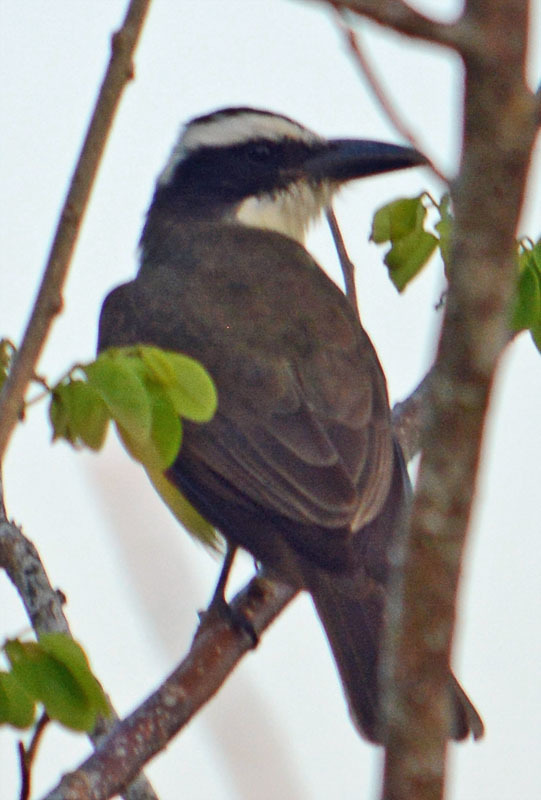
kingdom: Animalia
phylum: Chordata
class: Aves
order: Passeriformes
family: Tyrannidae
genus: Megarynchus
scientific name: Megarynchus pitangua
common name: Boat-billed flycatcher
